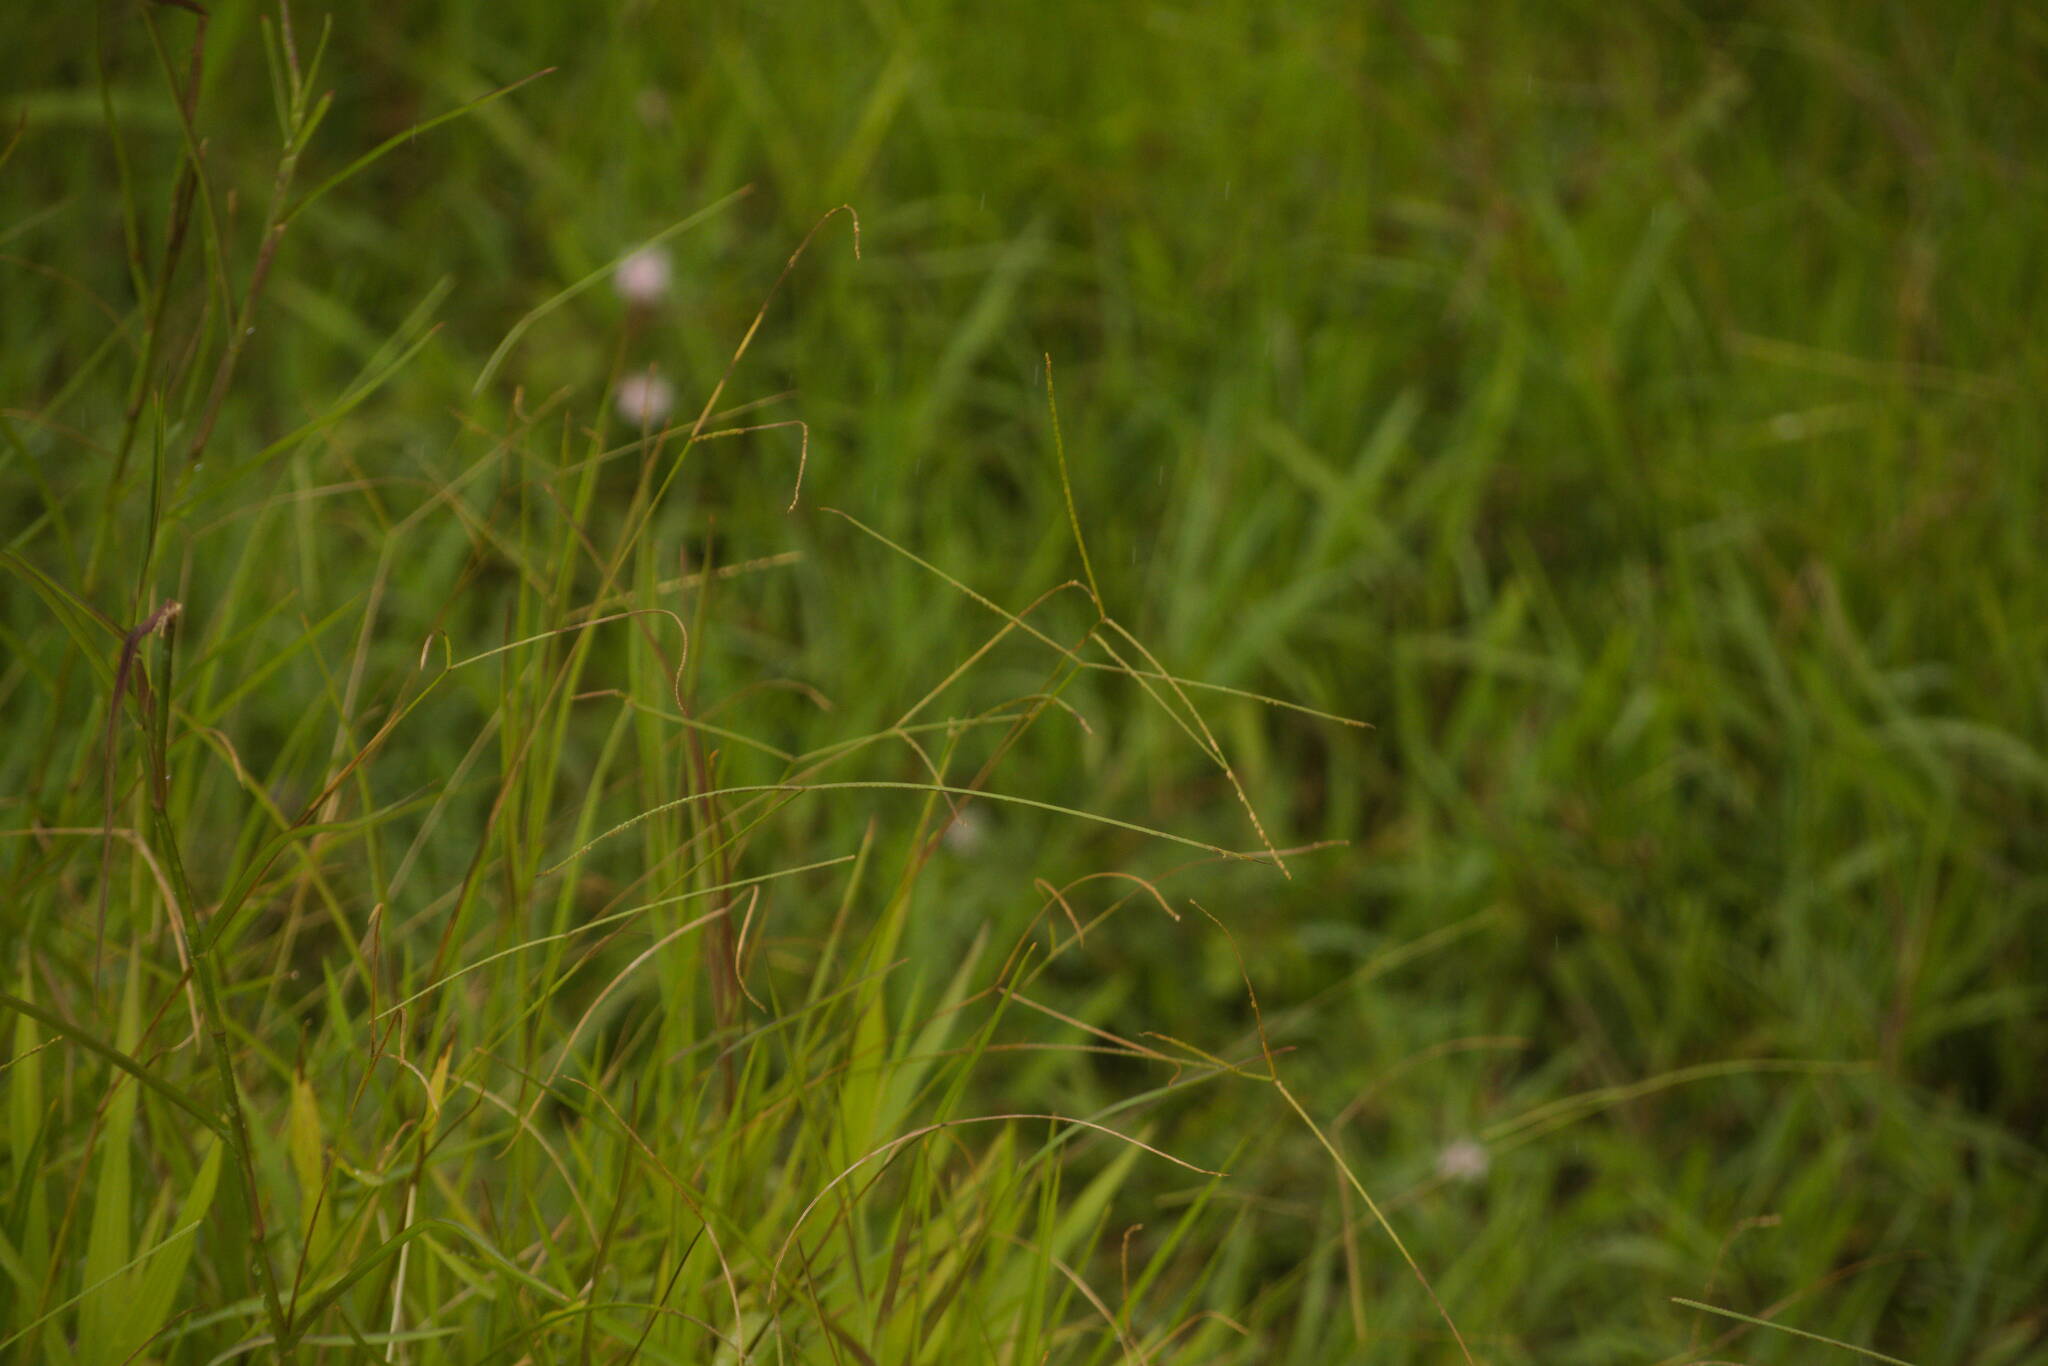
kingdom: Plantae
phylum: Tracheophyta
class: Liliopsida
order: Poales
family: Poaceae
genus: Paspalum
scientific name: Paspalum conjugatum
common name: Hilograss
